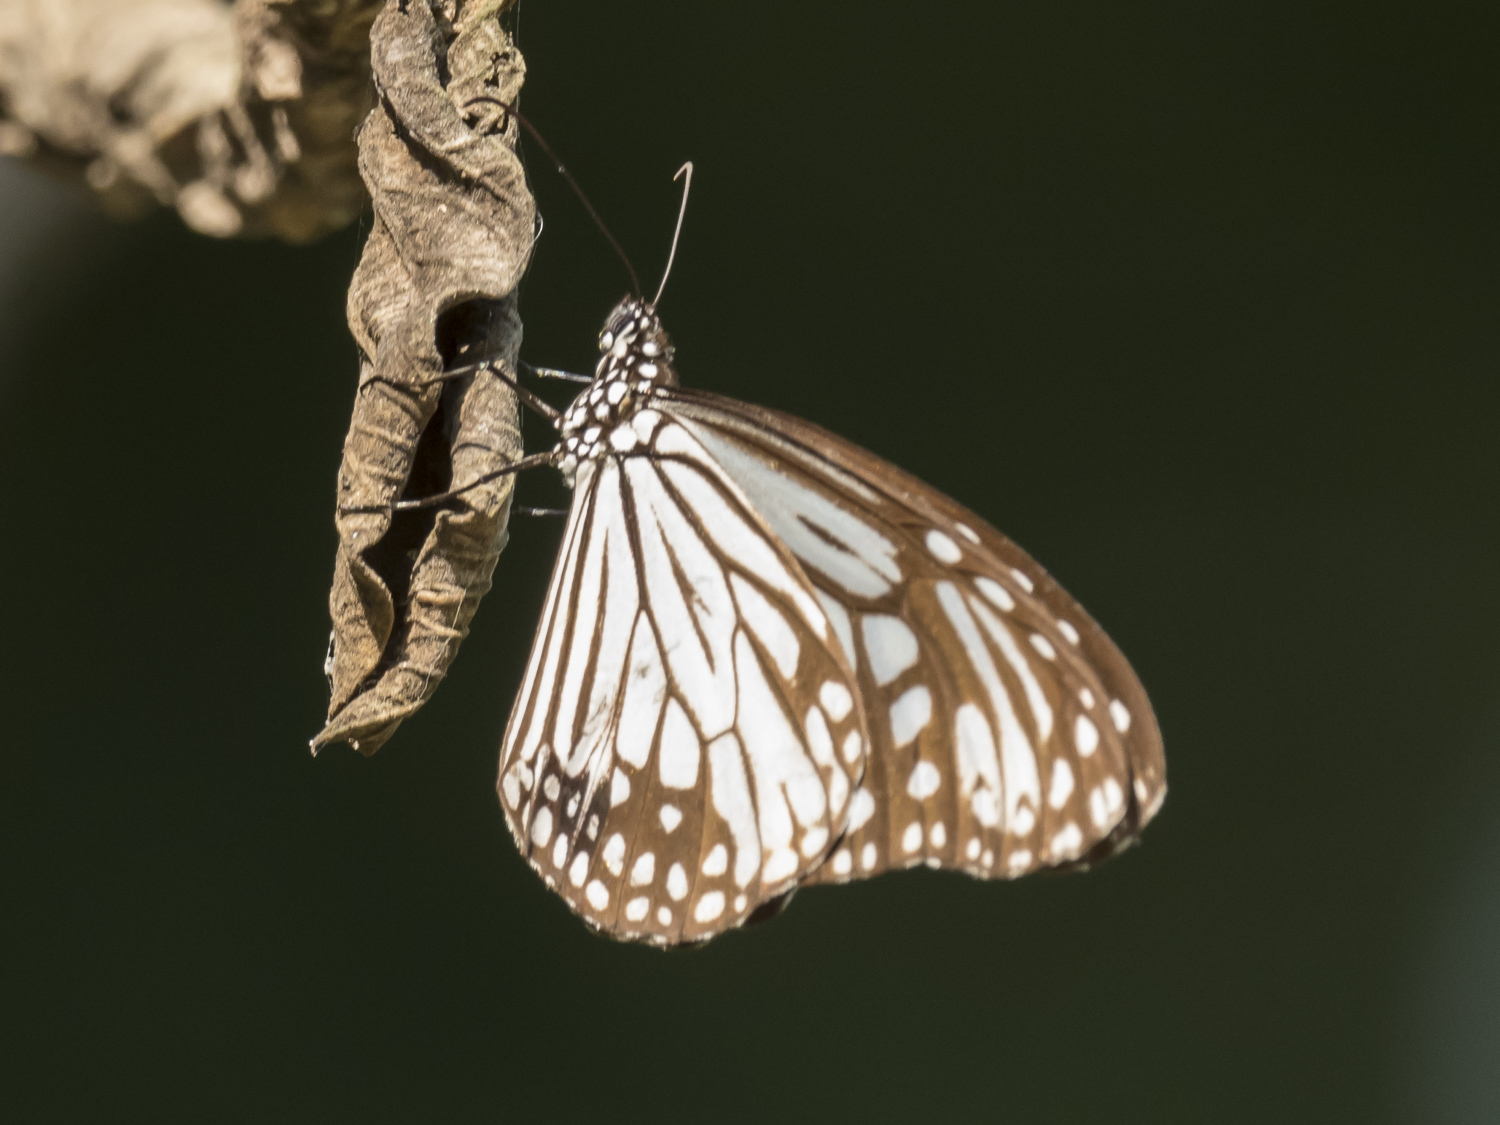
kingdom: Animalia
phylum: Arthropoda
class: Insecta
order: Lepidoptera
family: Nymphalidae
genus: Parantica
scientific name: Parantica aglea
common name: Glassy tiger
